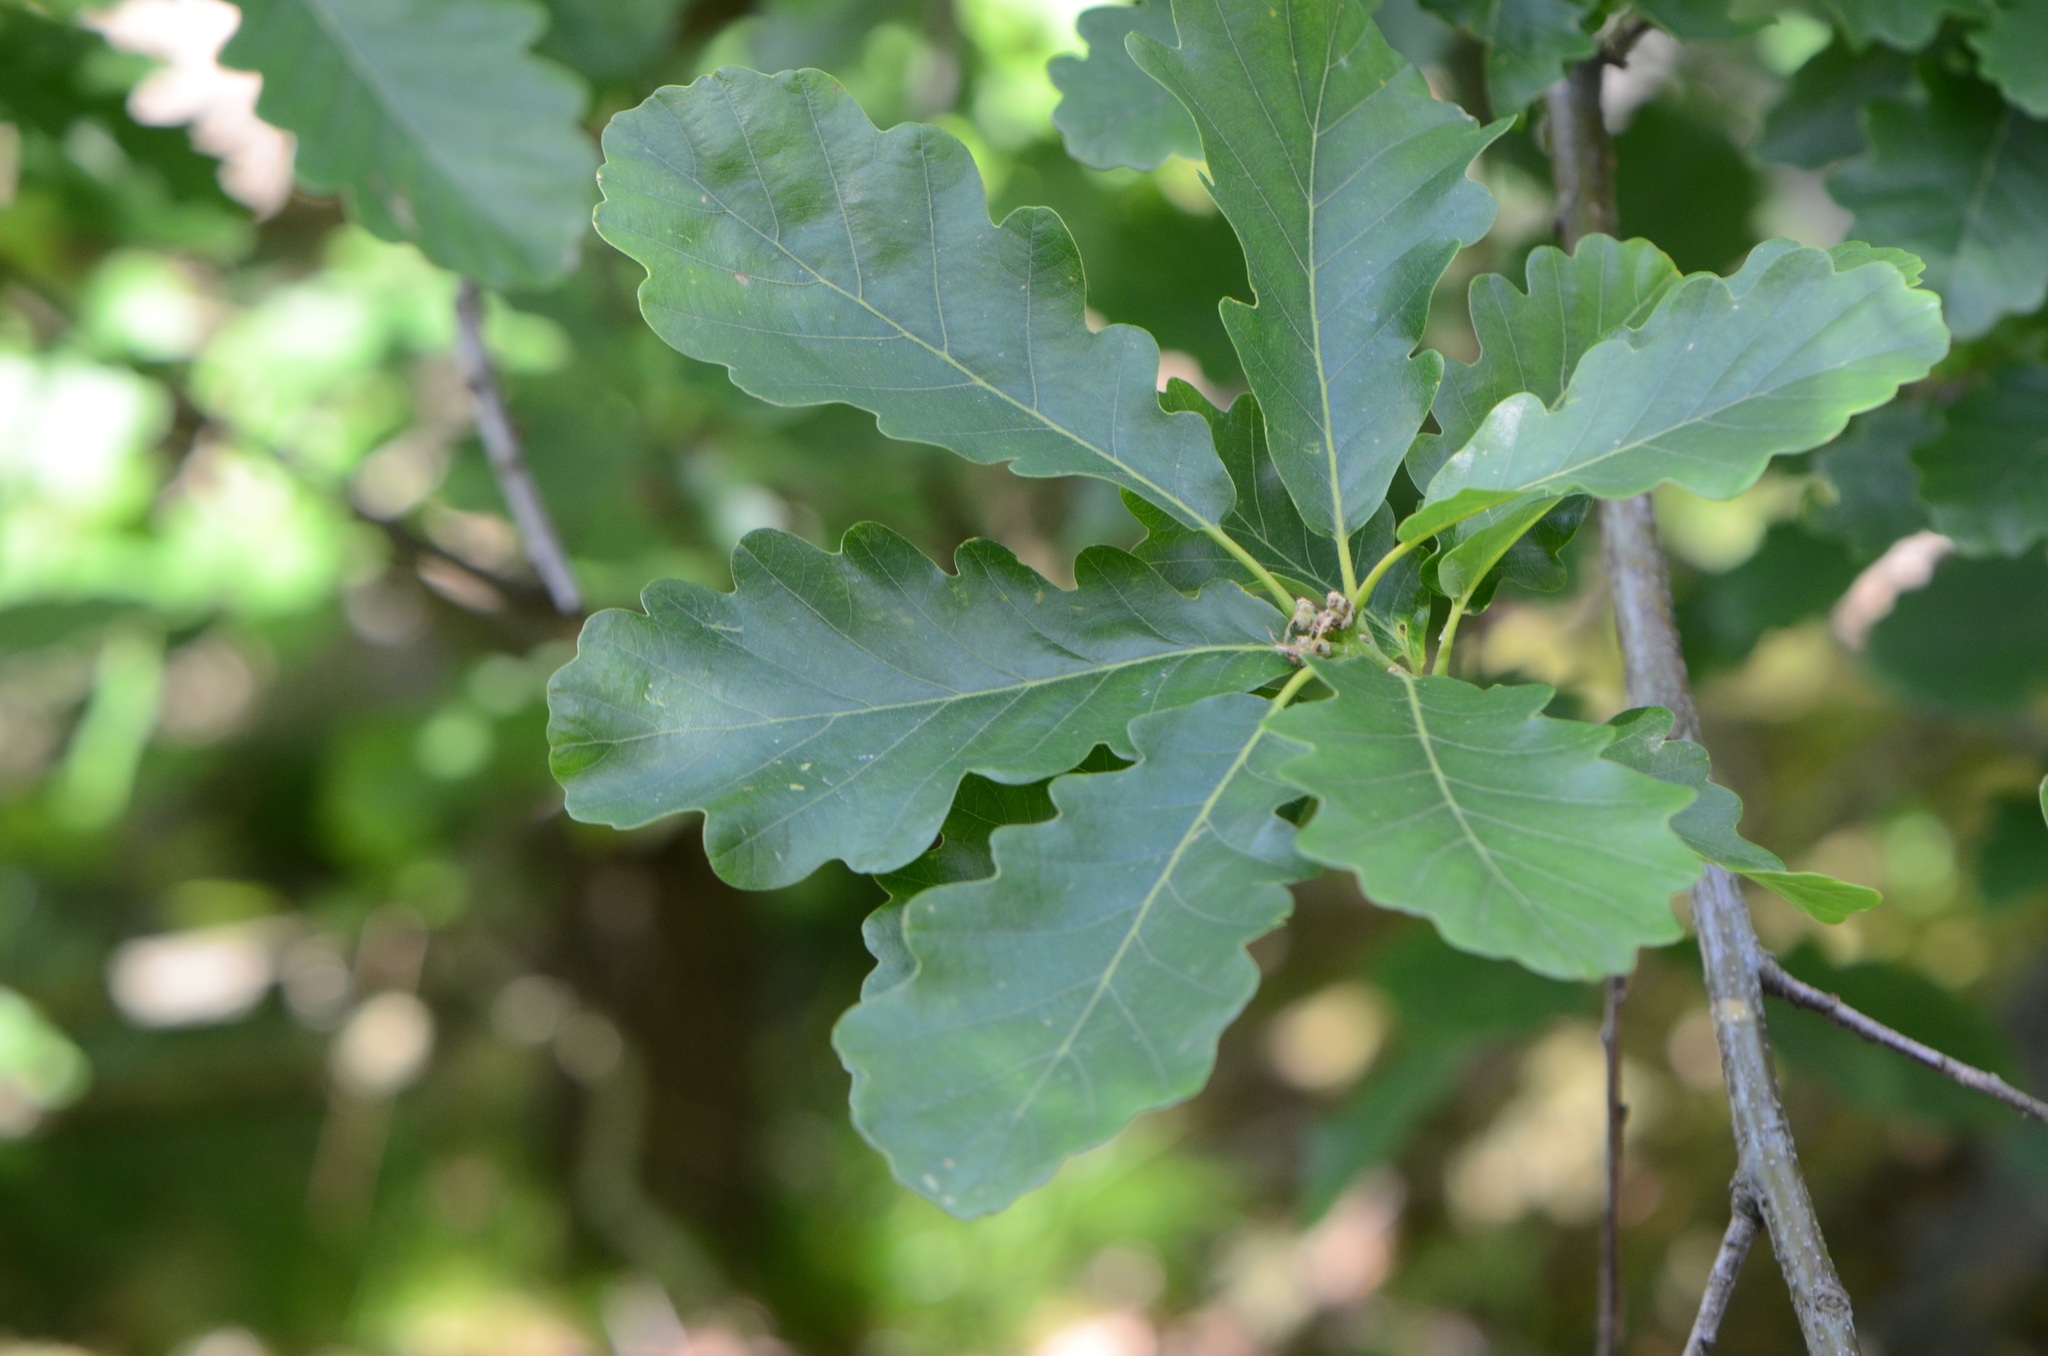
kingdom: Plantae
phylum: Tracheophyta
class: Magnoliopsida
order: Fagales
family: Fagaceae
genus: Quercus
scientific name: Quercus petraea
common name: Sessile oak
